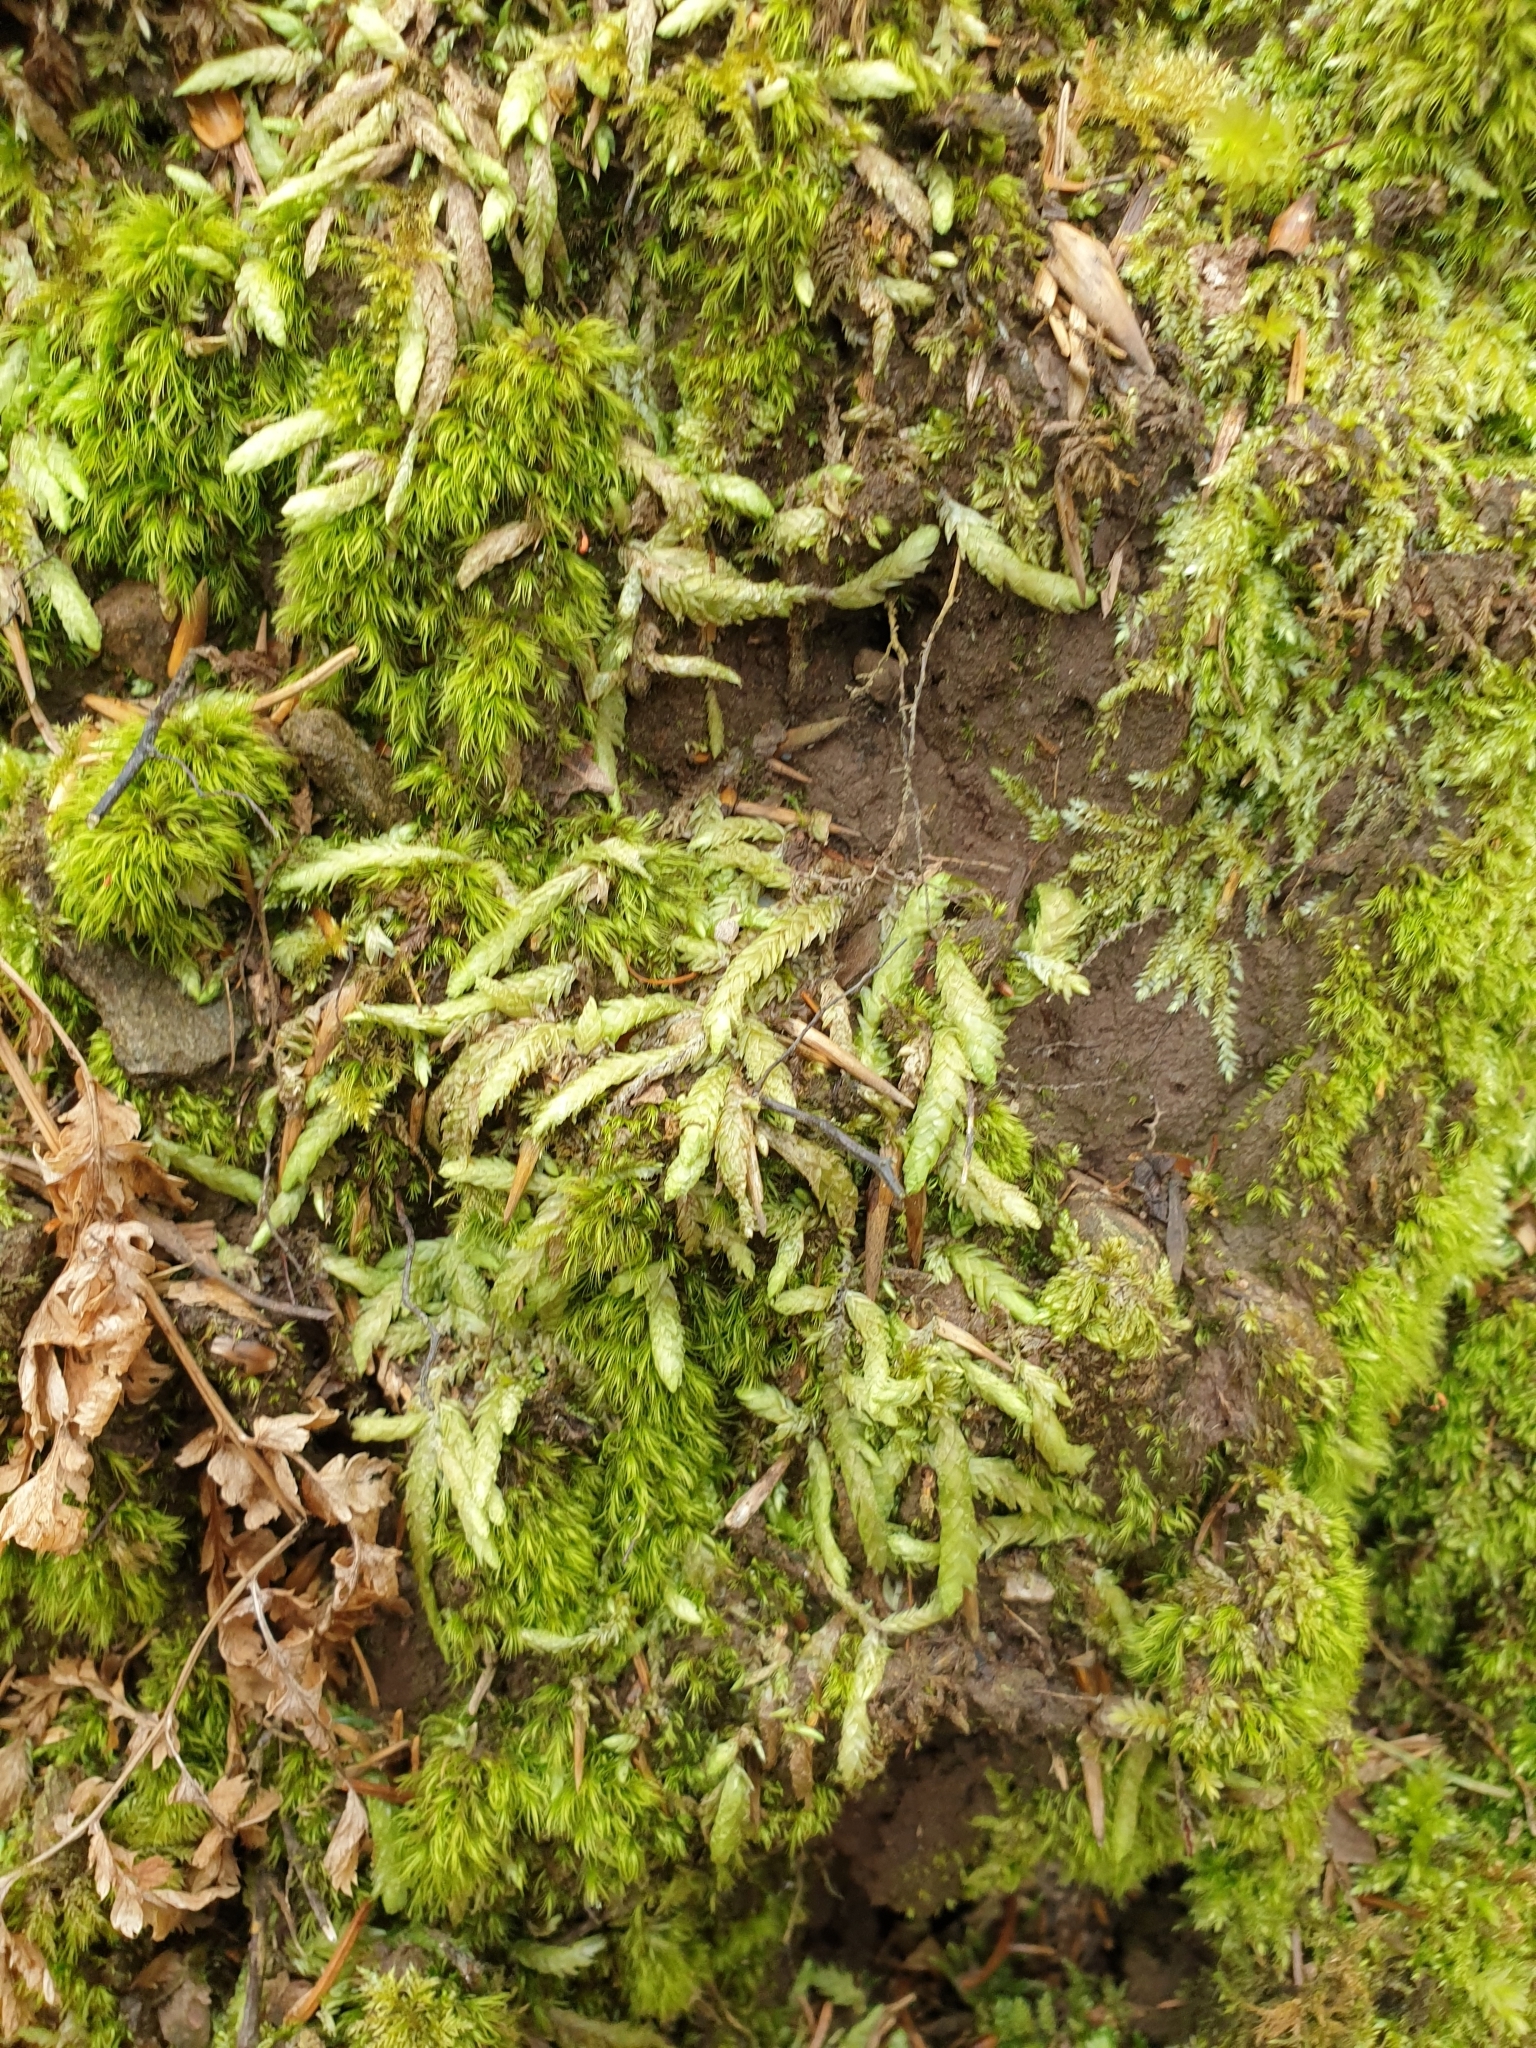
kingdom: Plantae
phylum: Bryophyta
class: Bryopsida
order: Hypnales
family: Plagiotheciaceae
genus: Plagiothecium
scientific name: Plagiothecium undulatum
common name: Waved silk-moss
